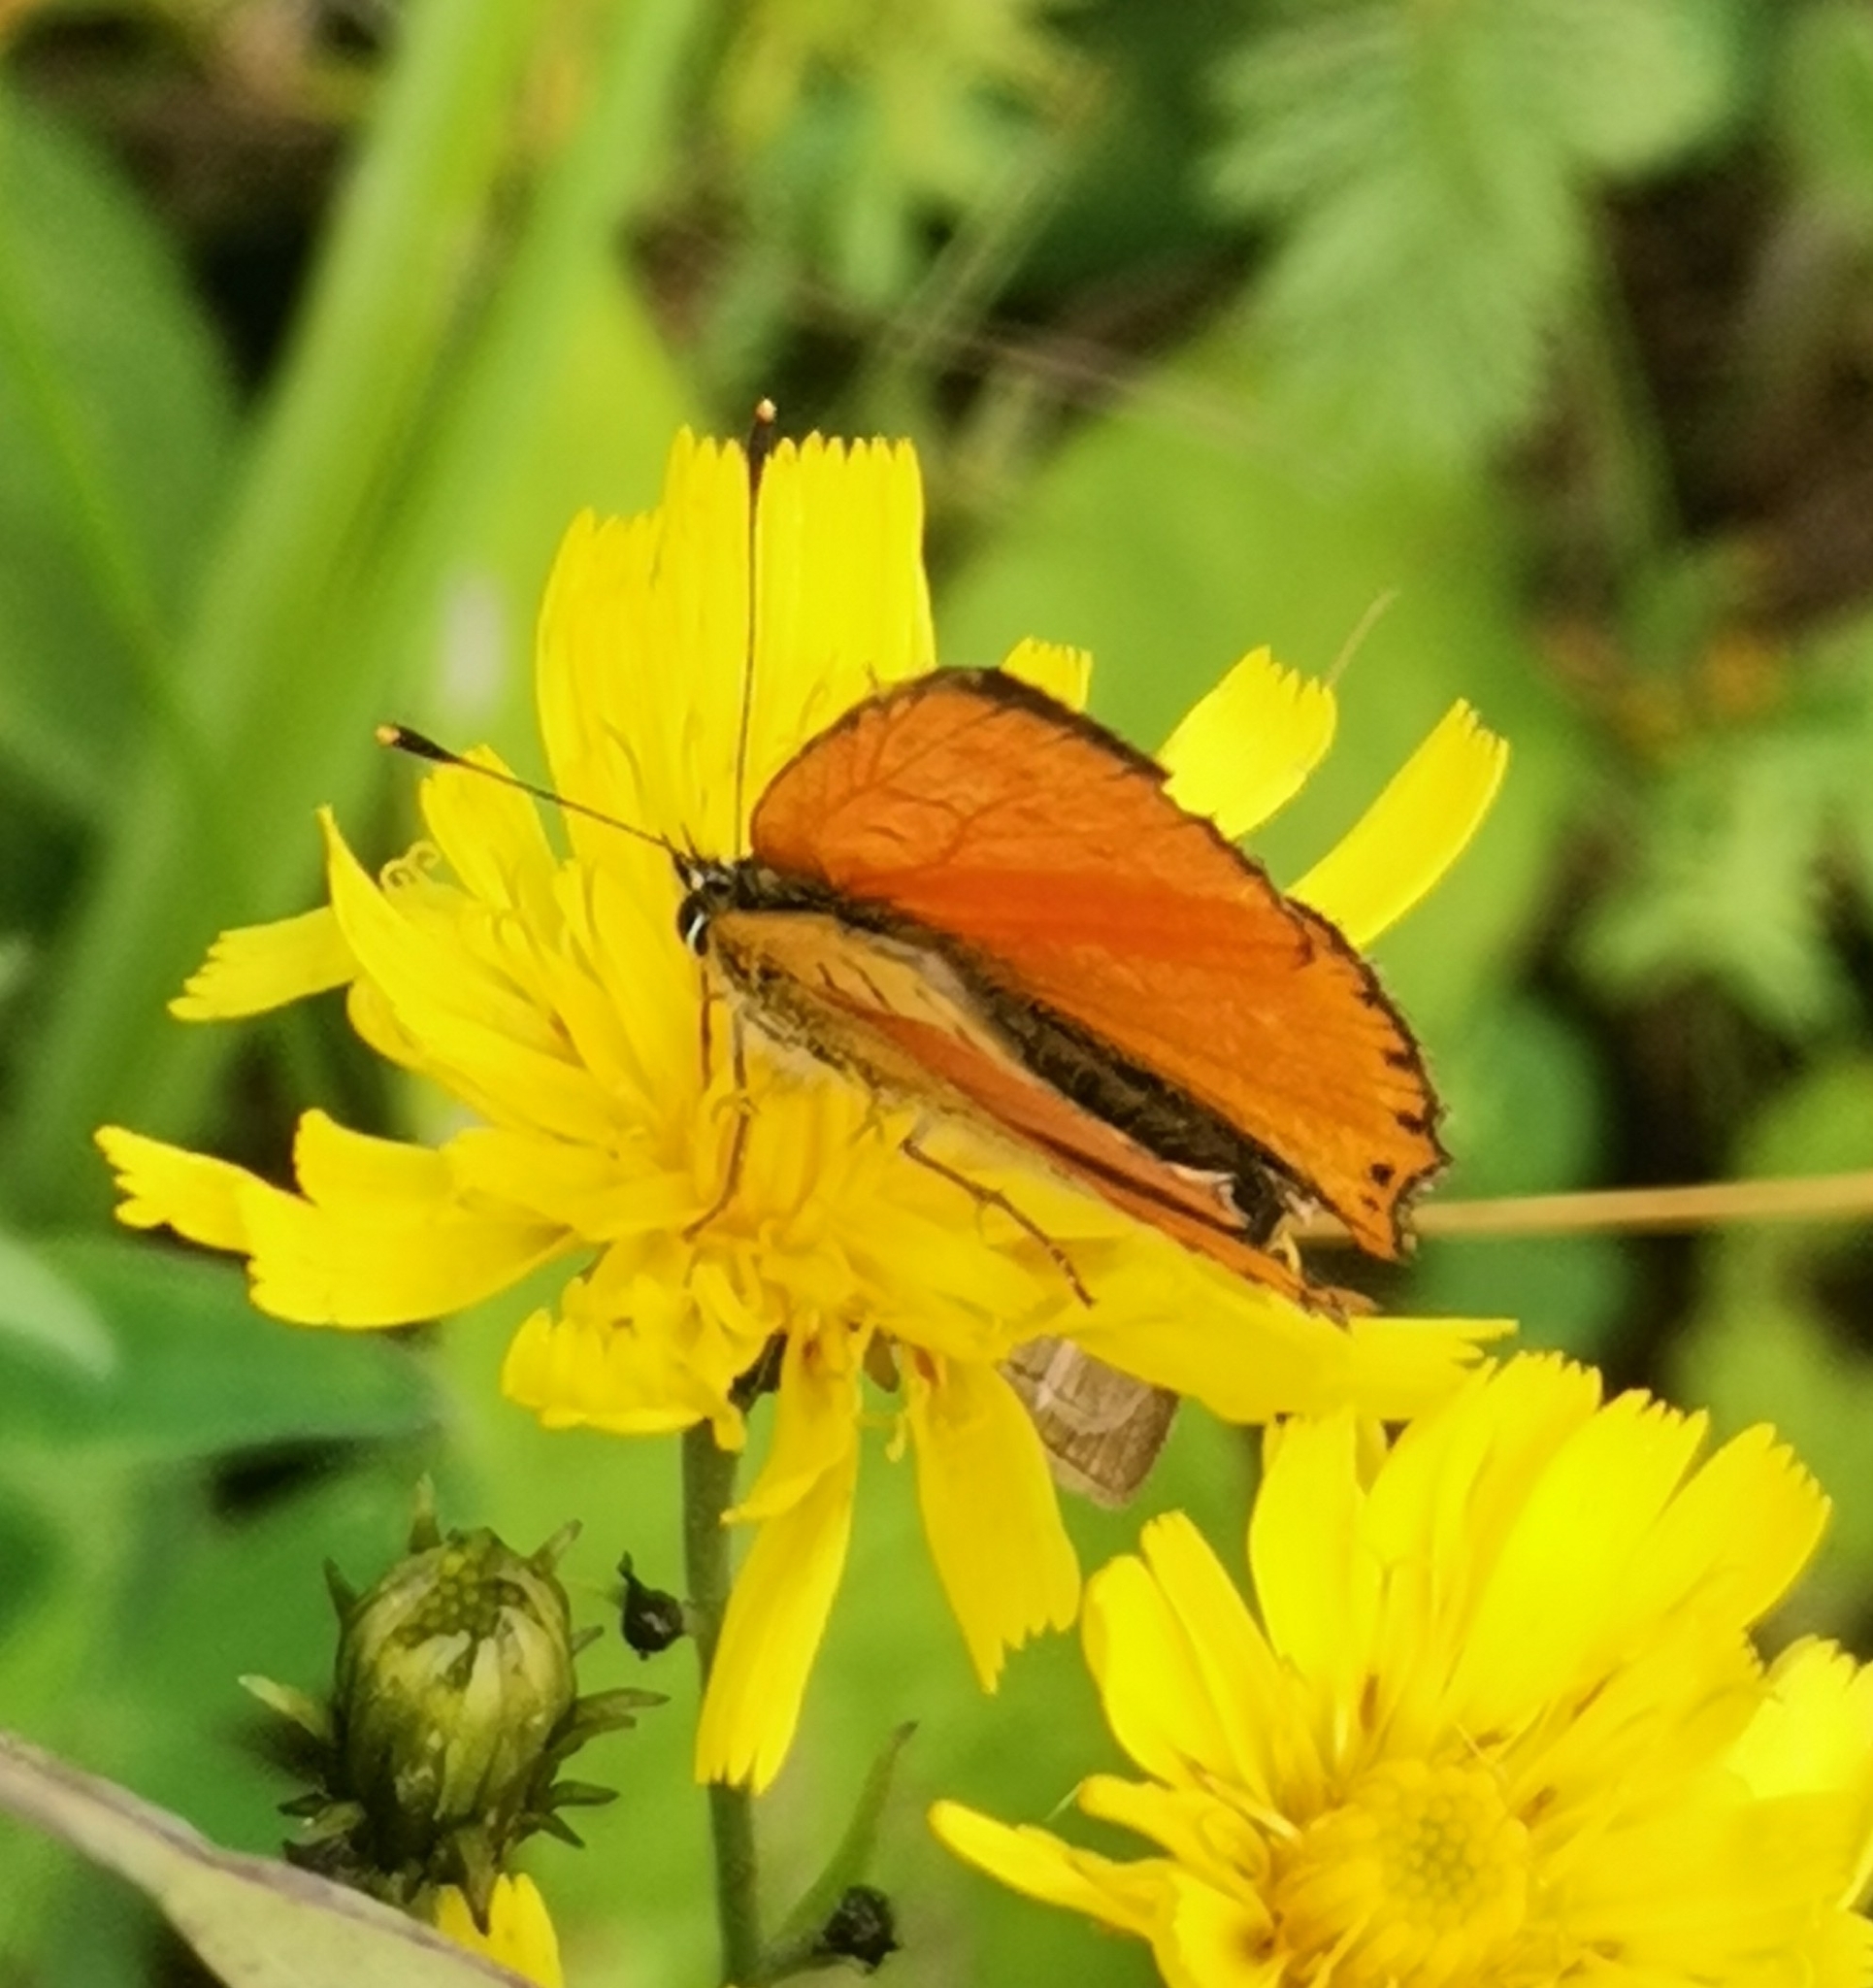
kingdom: Animalia
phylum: Arthropoda
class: Insecta
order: Lepidoptera
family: Lycaenidae
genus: Lycaena
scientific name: Lycaena virgaureae
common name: Scarce copper
